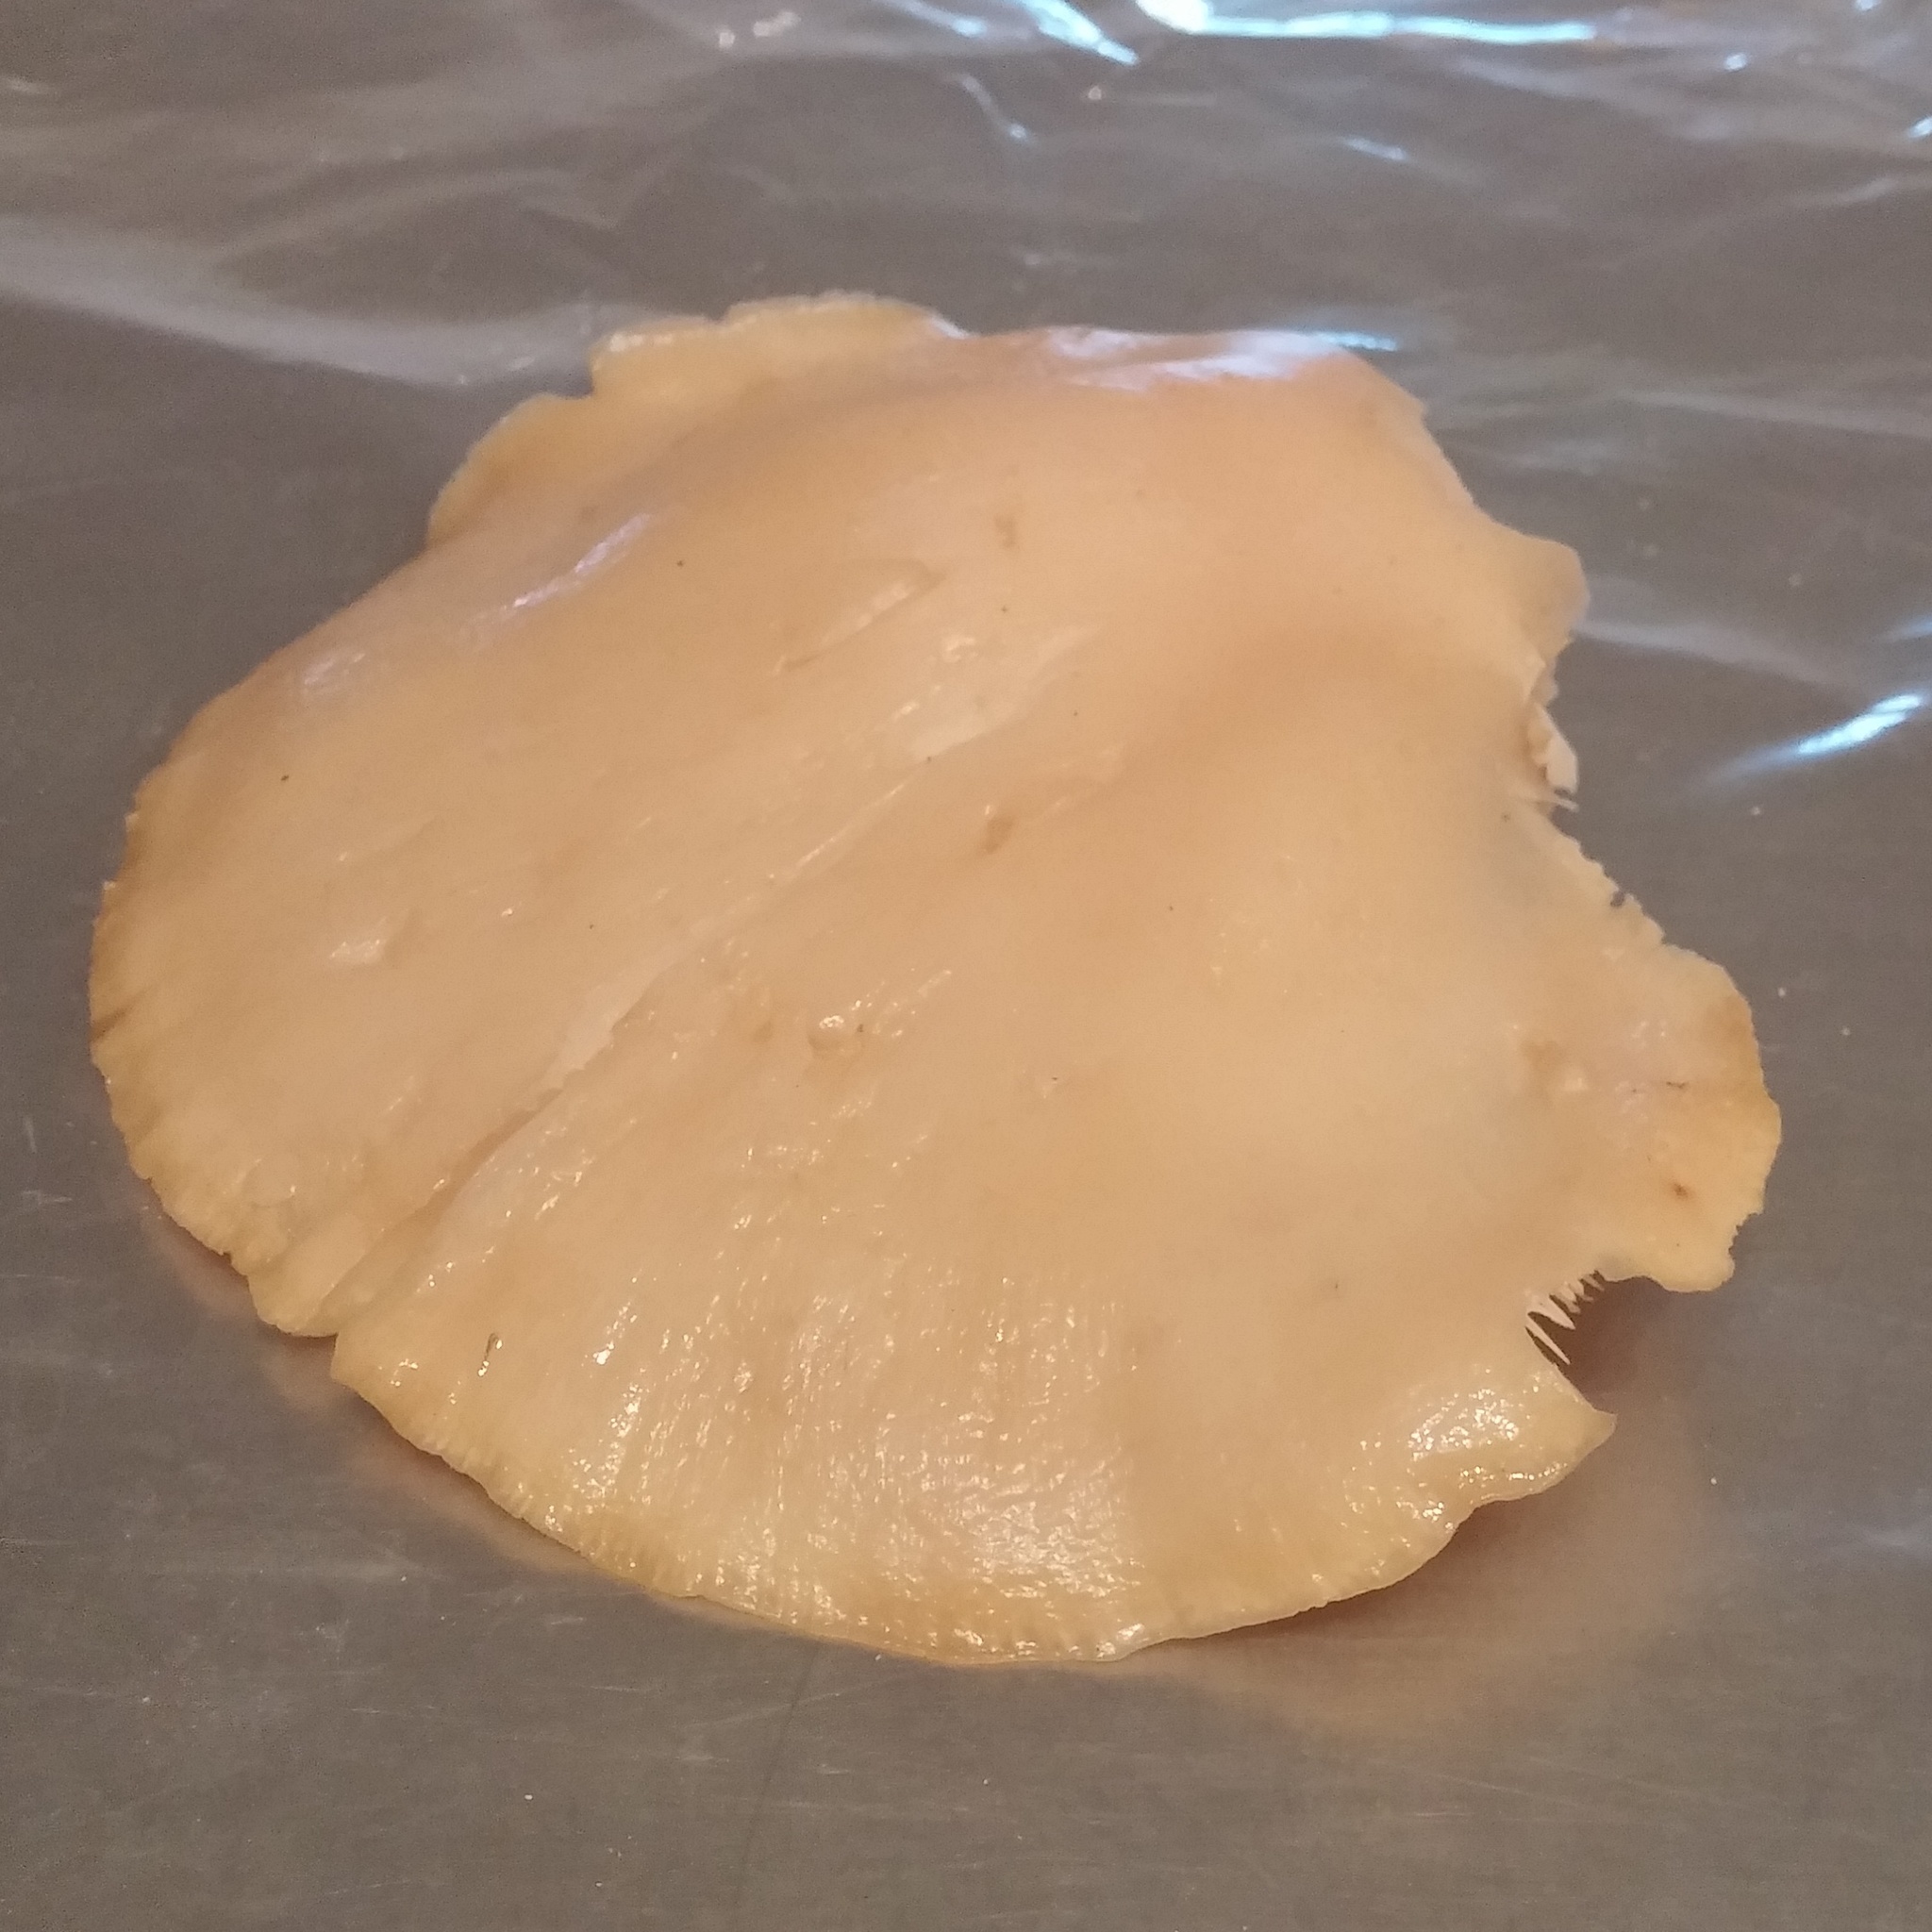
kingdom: Fungi
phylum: Basidiomycota
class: Agaricomycetes
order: Agaricales
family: Pleurotaceae
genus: Pleurotus
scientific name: Pleurotus ostreatus
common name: Oyster mushroom
